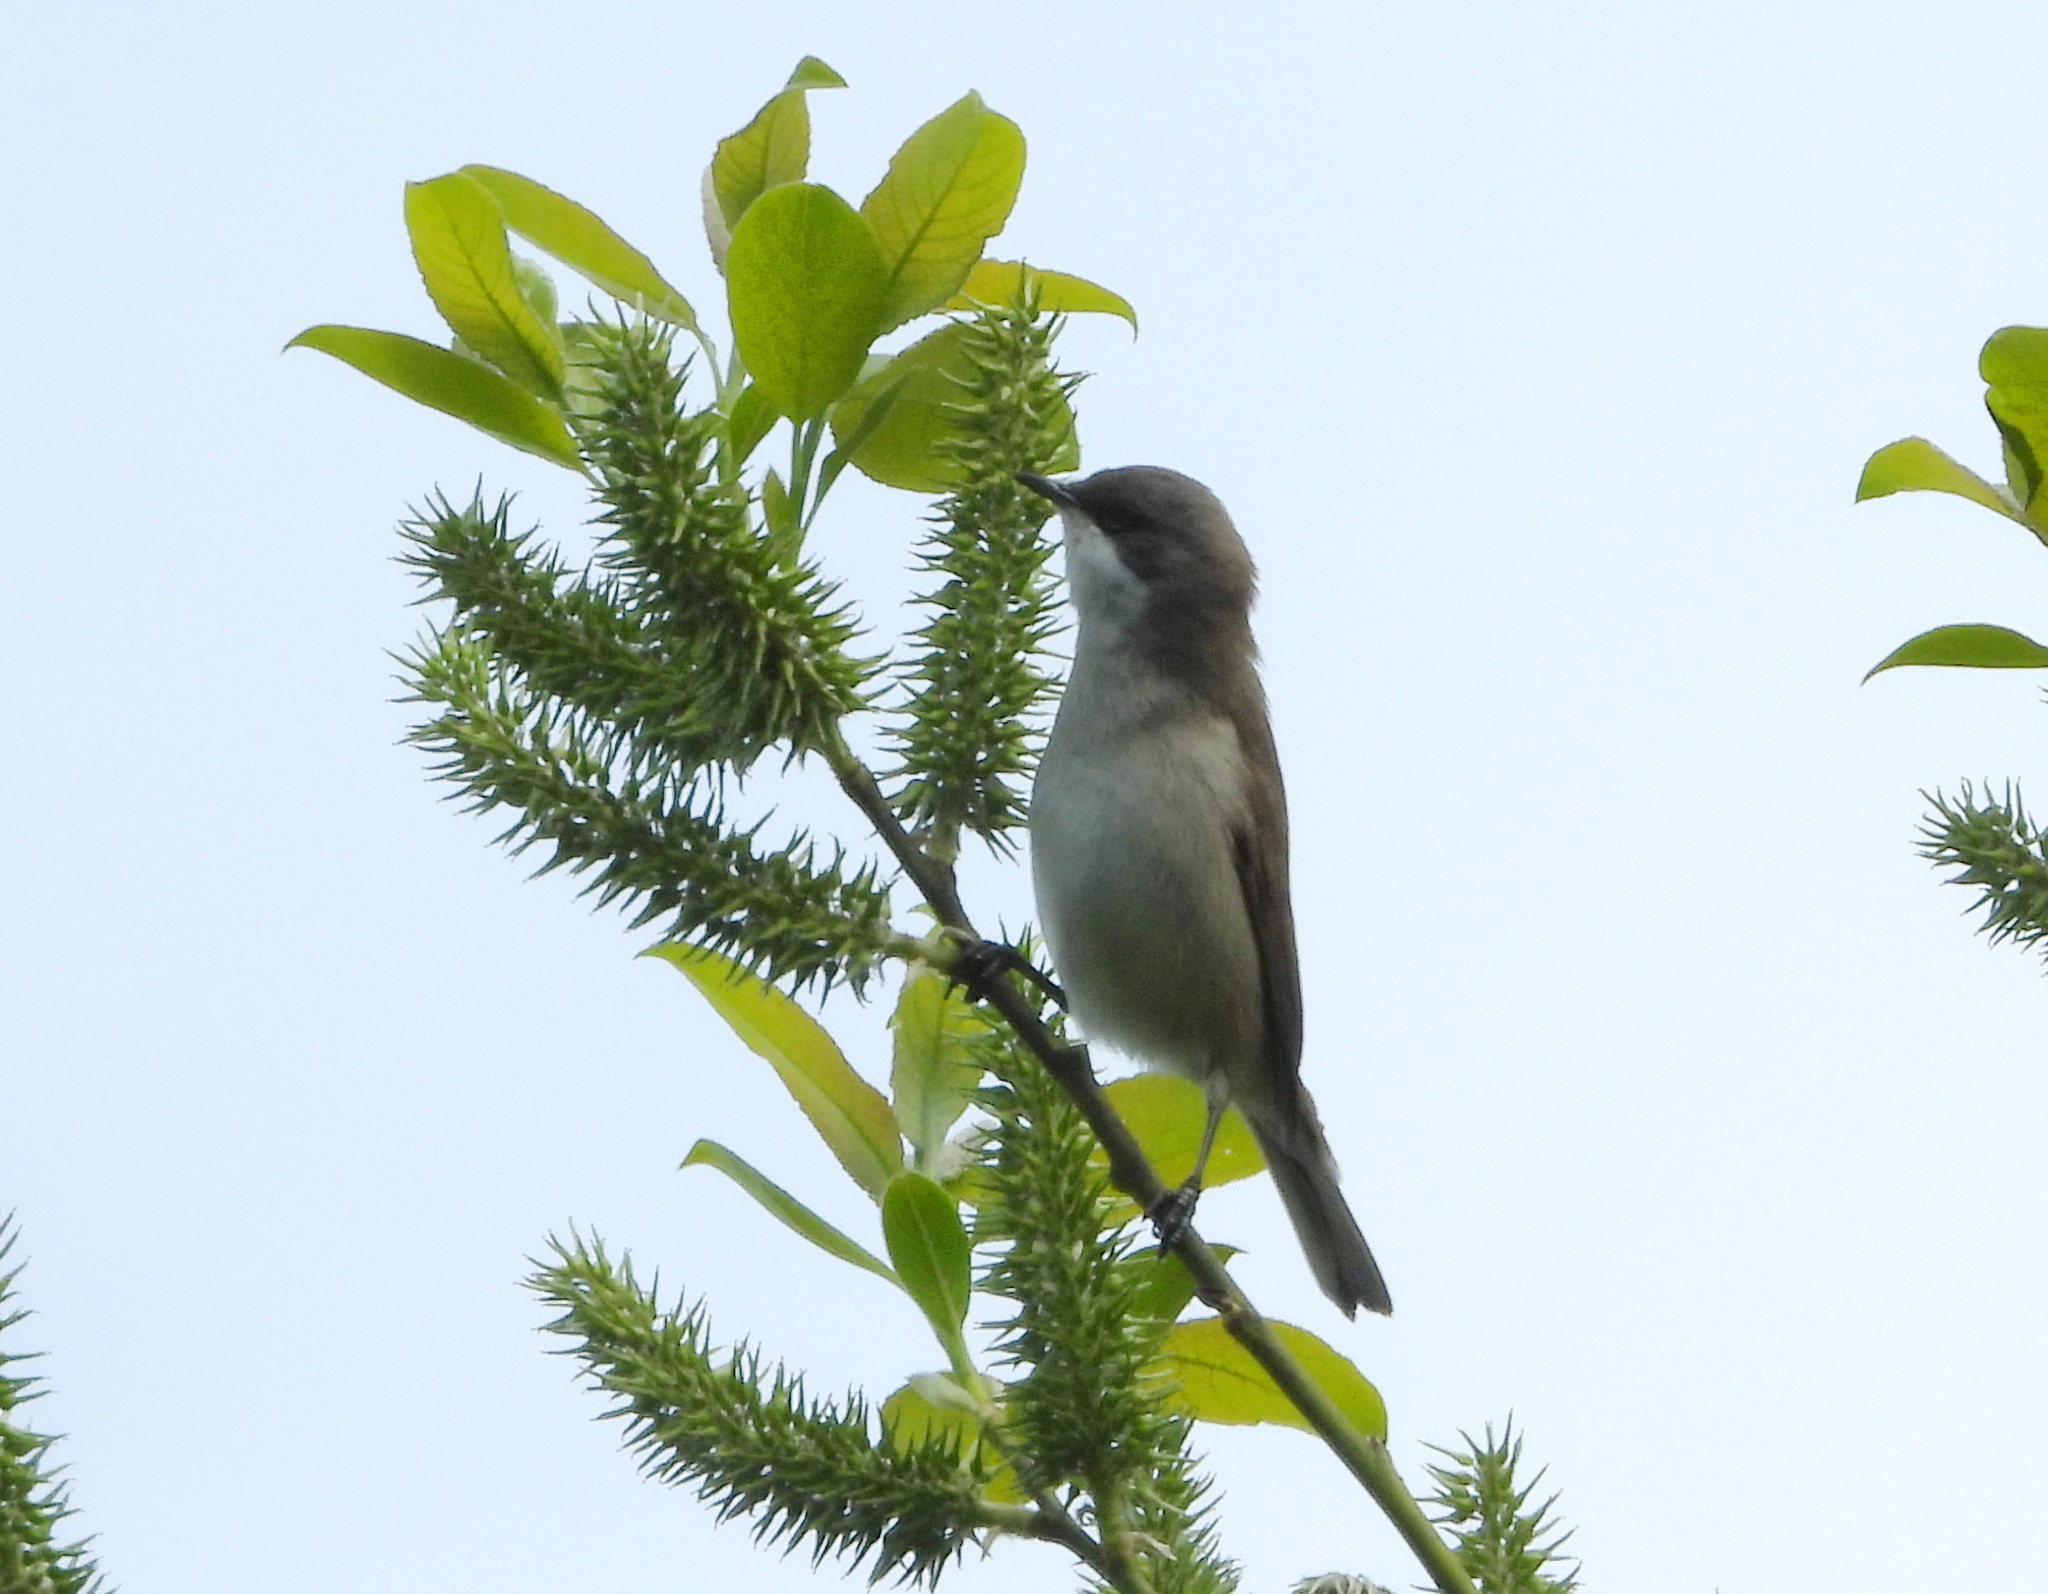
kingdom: Animalia
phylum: Chordata
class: Aves
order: Passeriformes
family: Sylviidae
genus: Sylvia
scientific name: Sylvia curruca
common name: Lesser whitethroat
